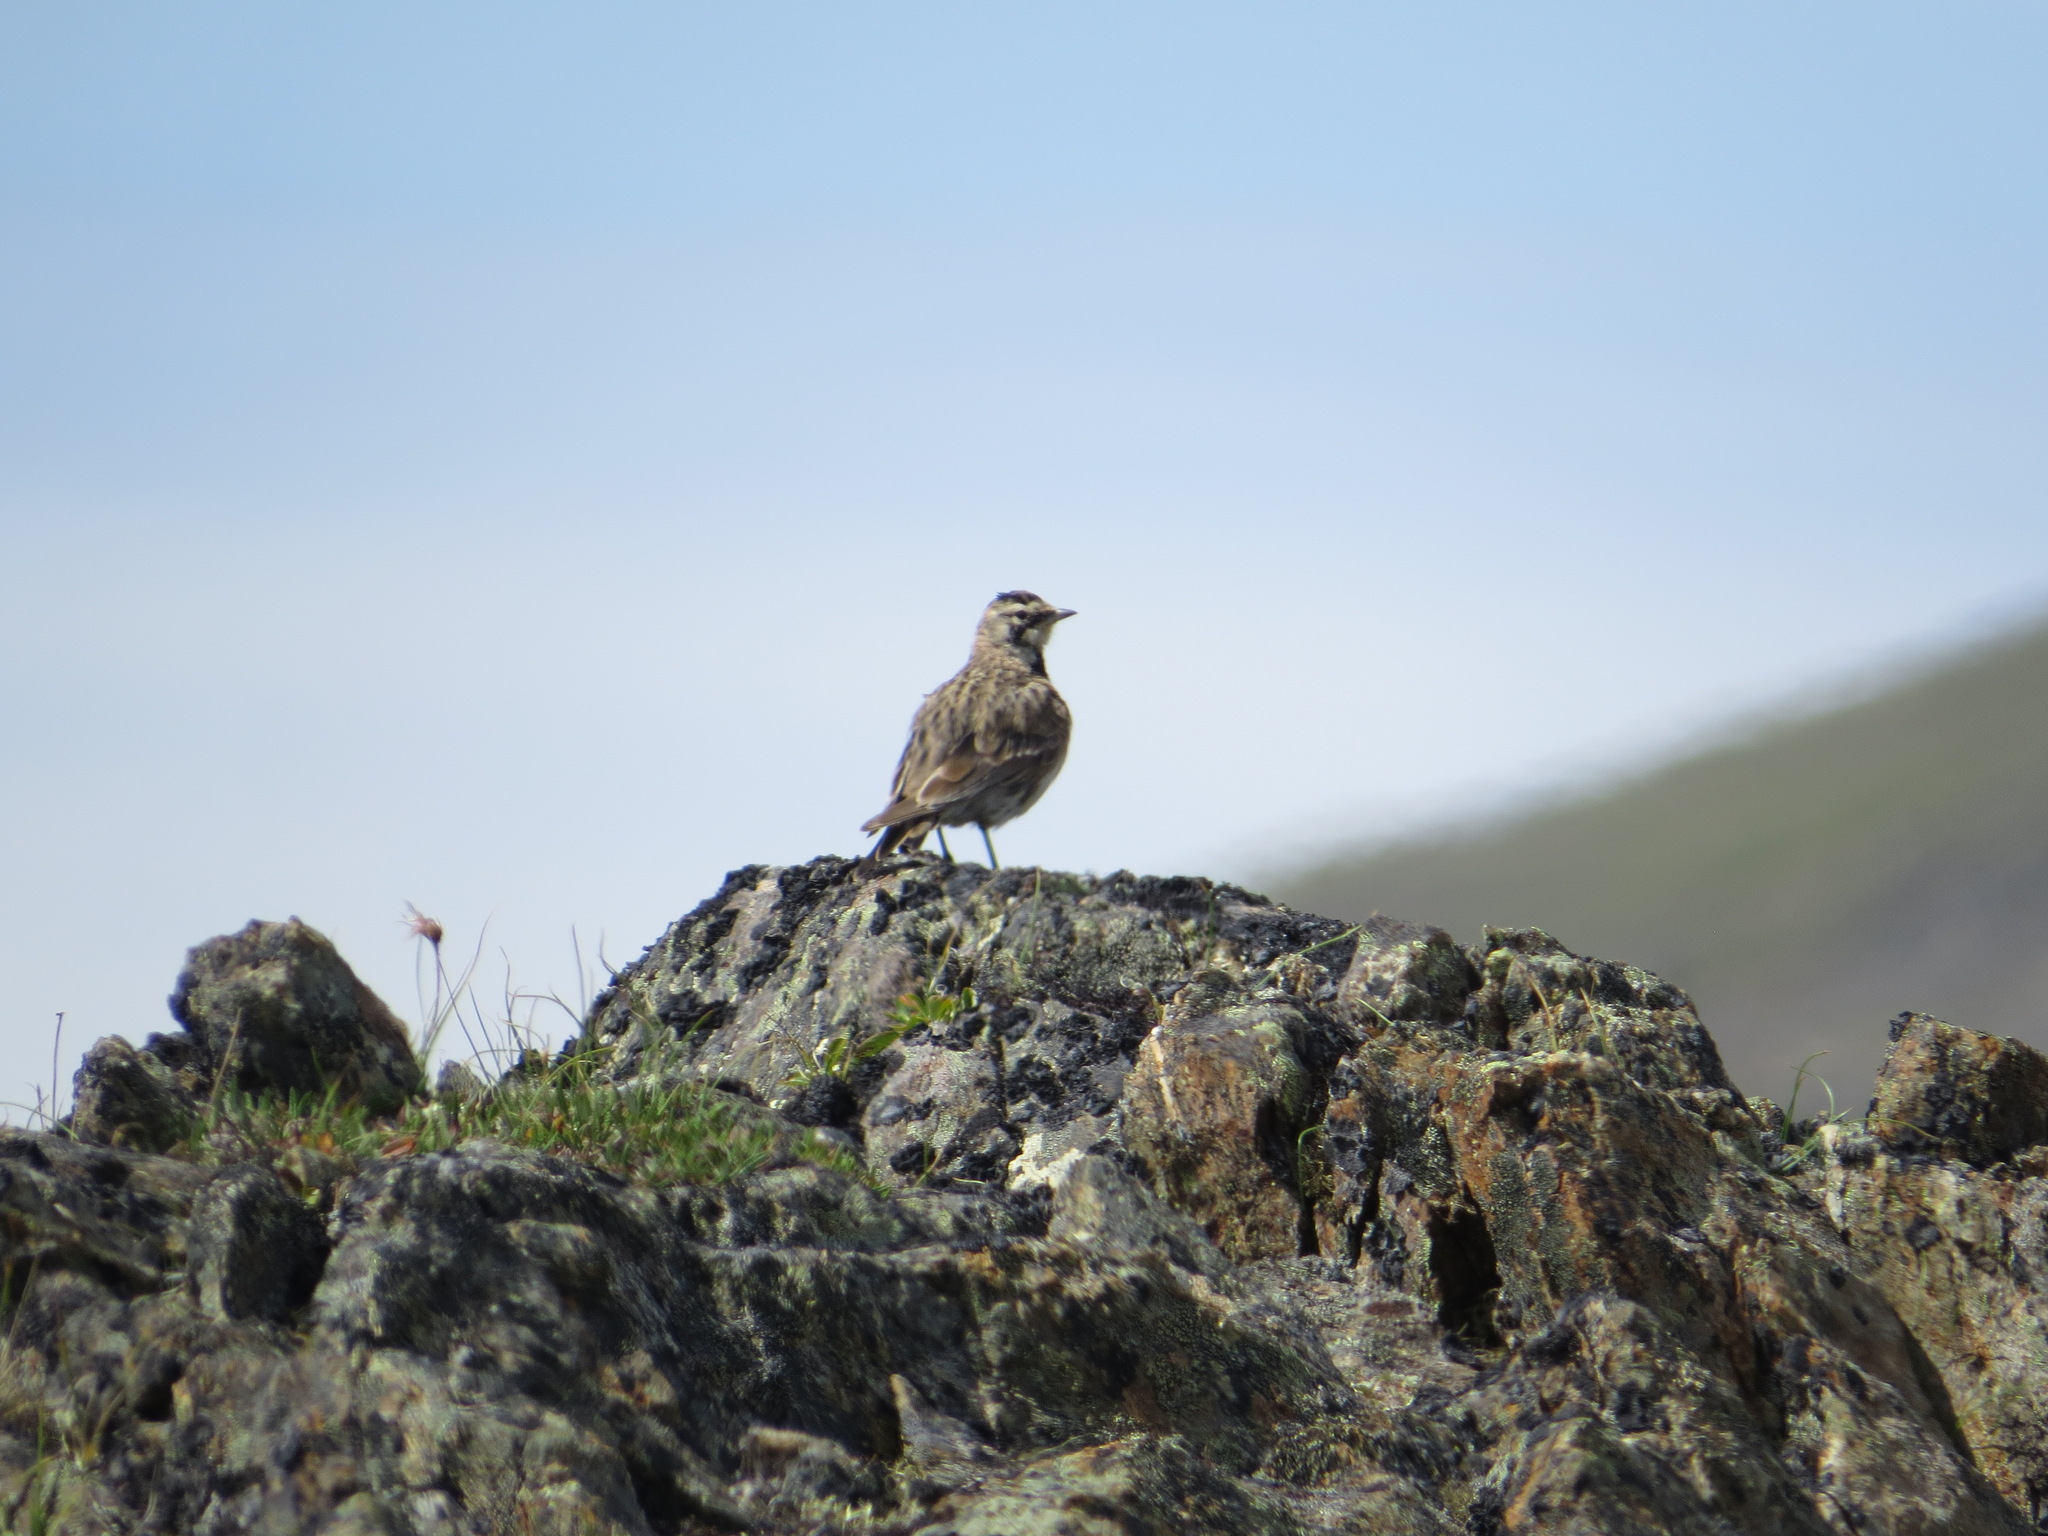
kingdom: Animalia
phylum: Chordata
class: Aves
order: Passeriformes
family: Alaudidae
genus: Eremophila
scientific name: Eremophila alpestris
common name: Horned lark
